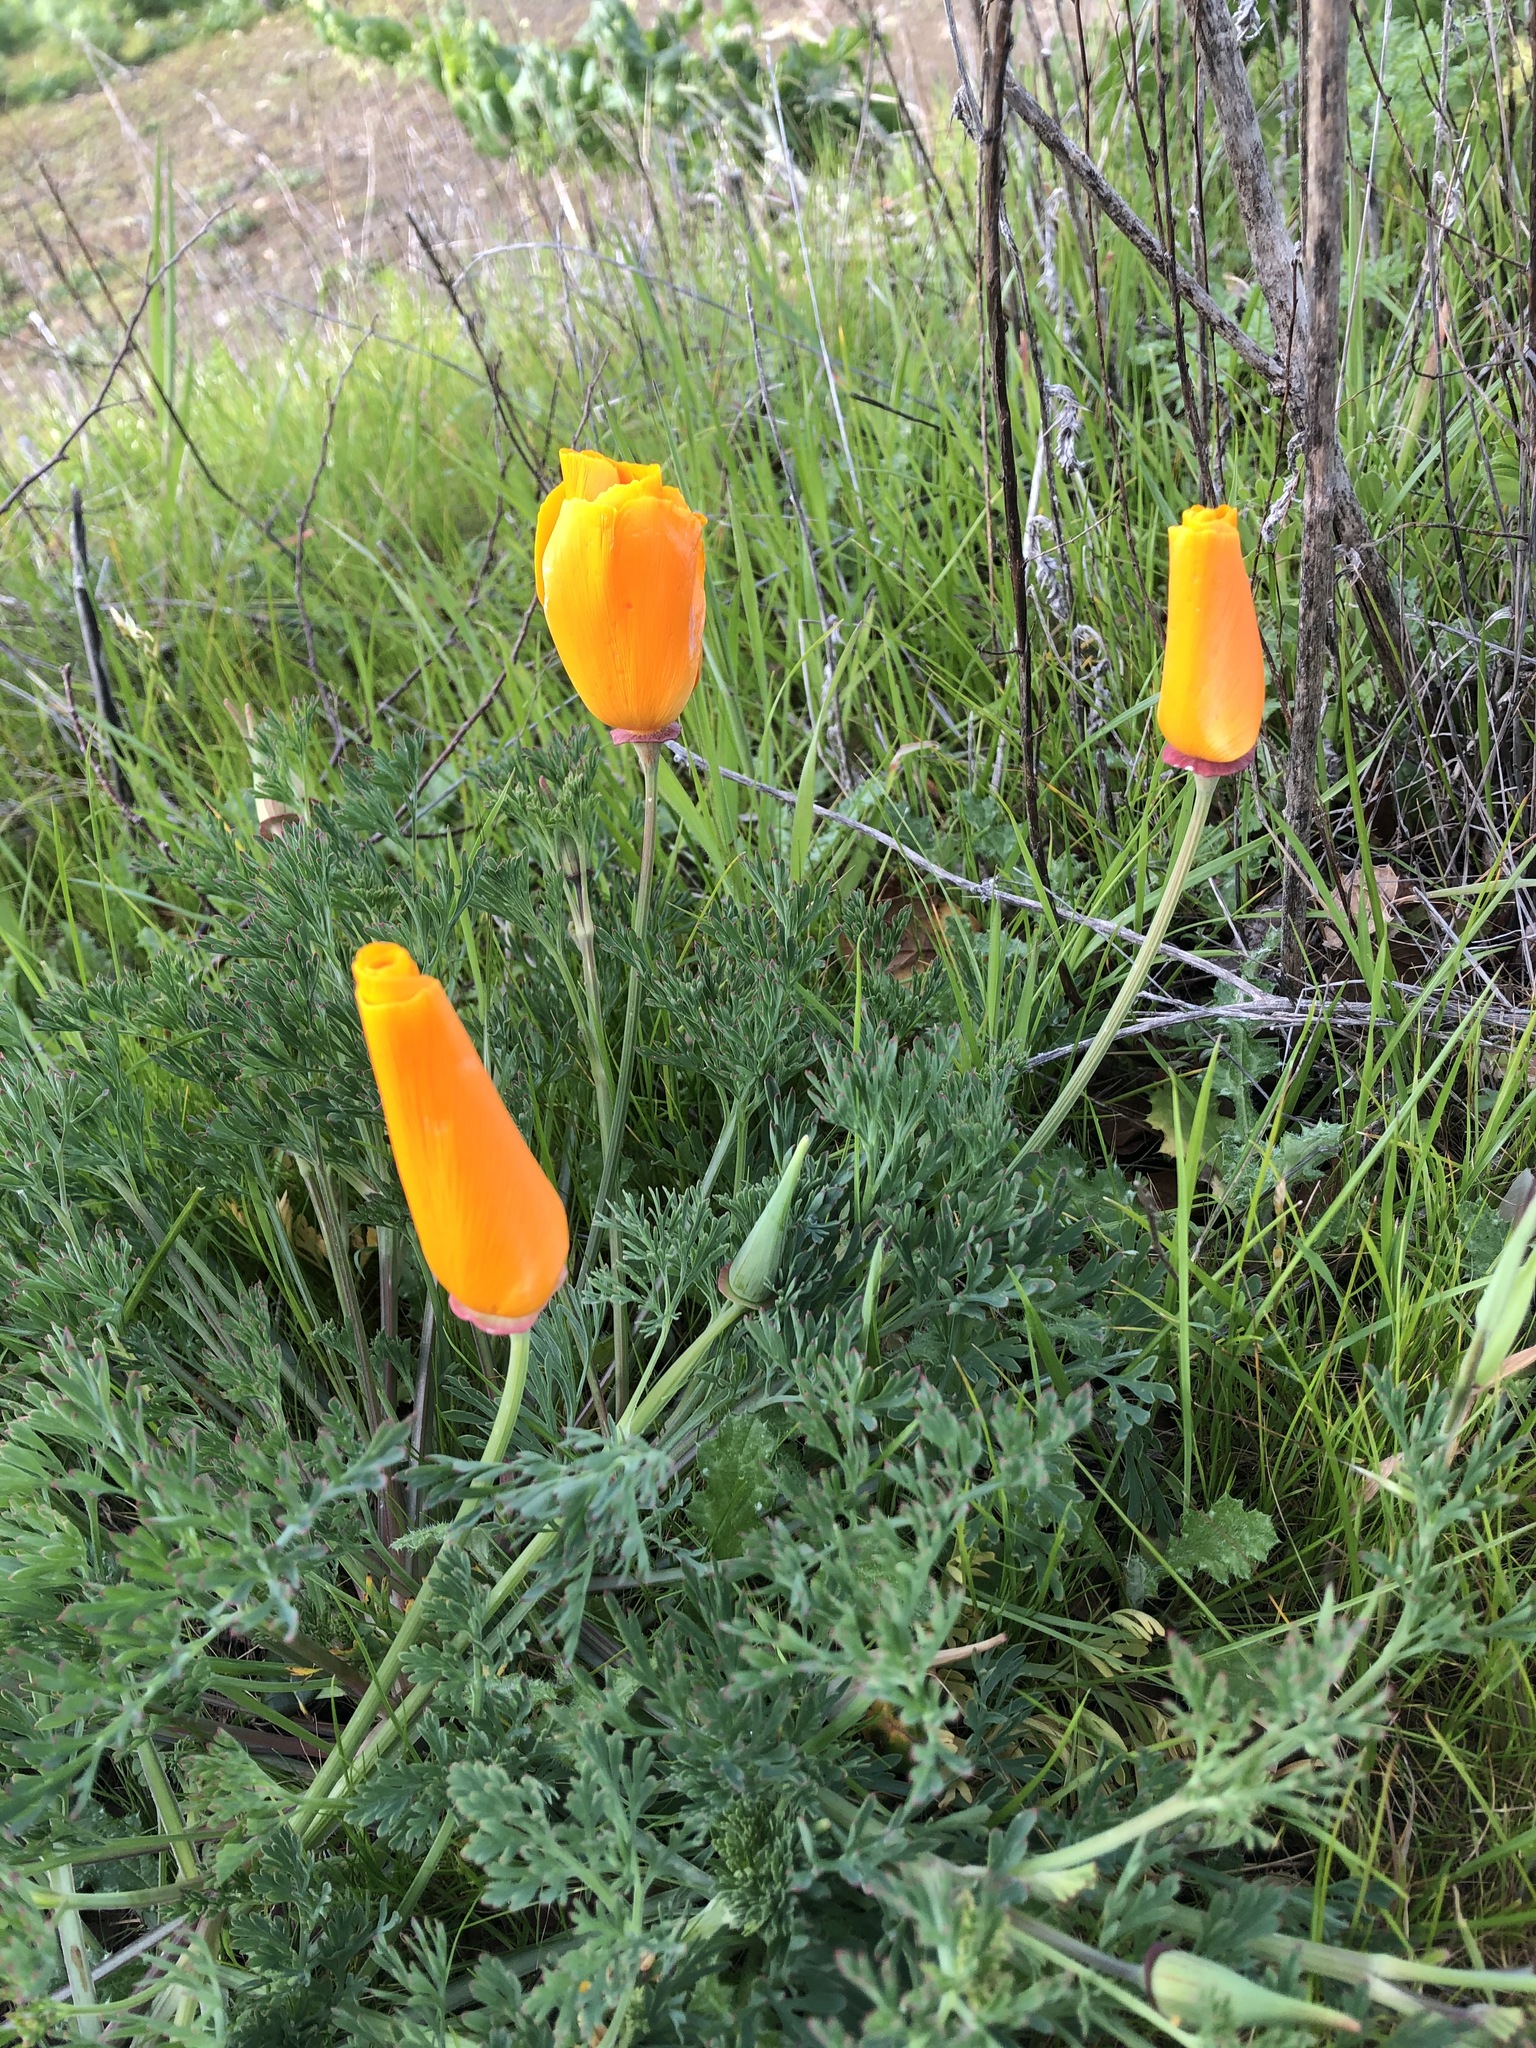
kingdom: Plantae
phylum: Tracheophyta
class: Magnoliopsida
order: Ranunculales
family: Papaveraceae
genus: Eschscholzia
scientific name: Eschscholzia californica
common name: California poppy
